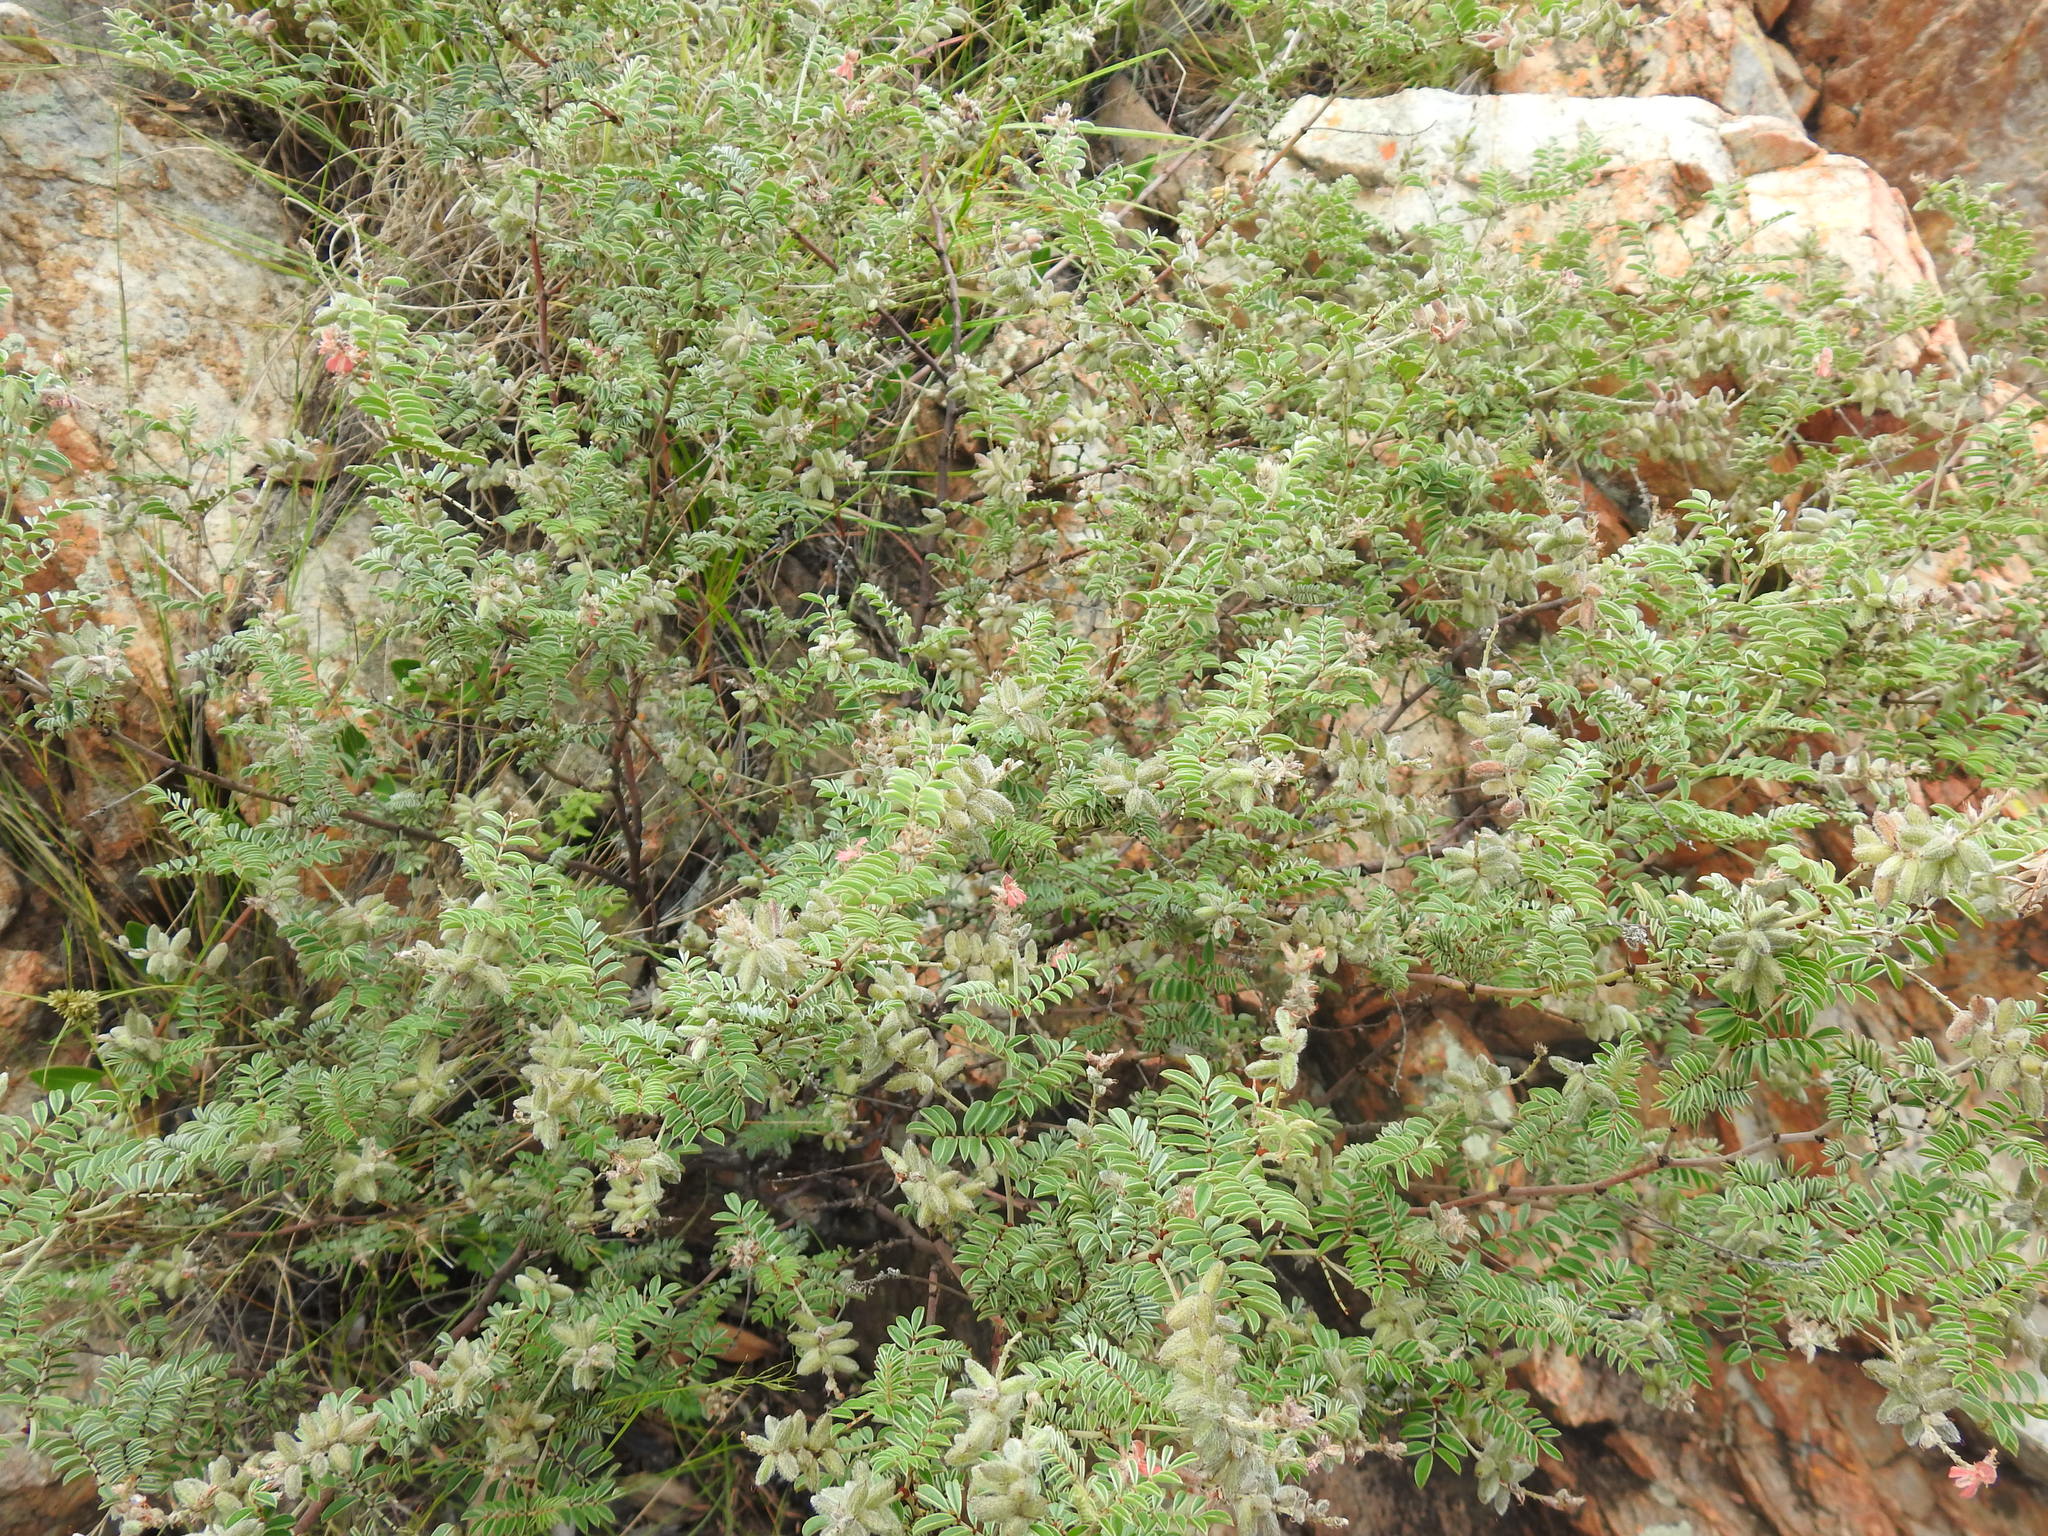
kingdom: Plantae
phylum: Tracheophyta
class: Magnoliopsida
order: Fabales
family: Fabaceae
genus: Indigofera
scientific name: Indigofera melanadenia
